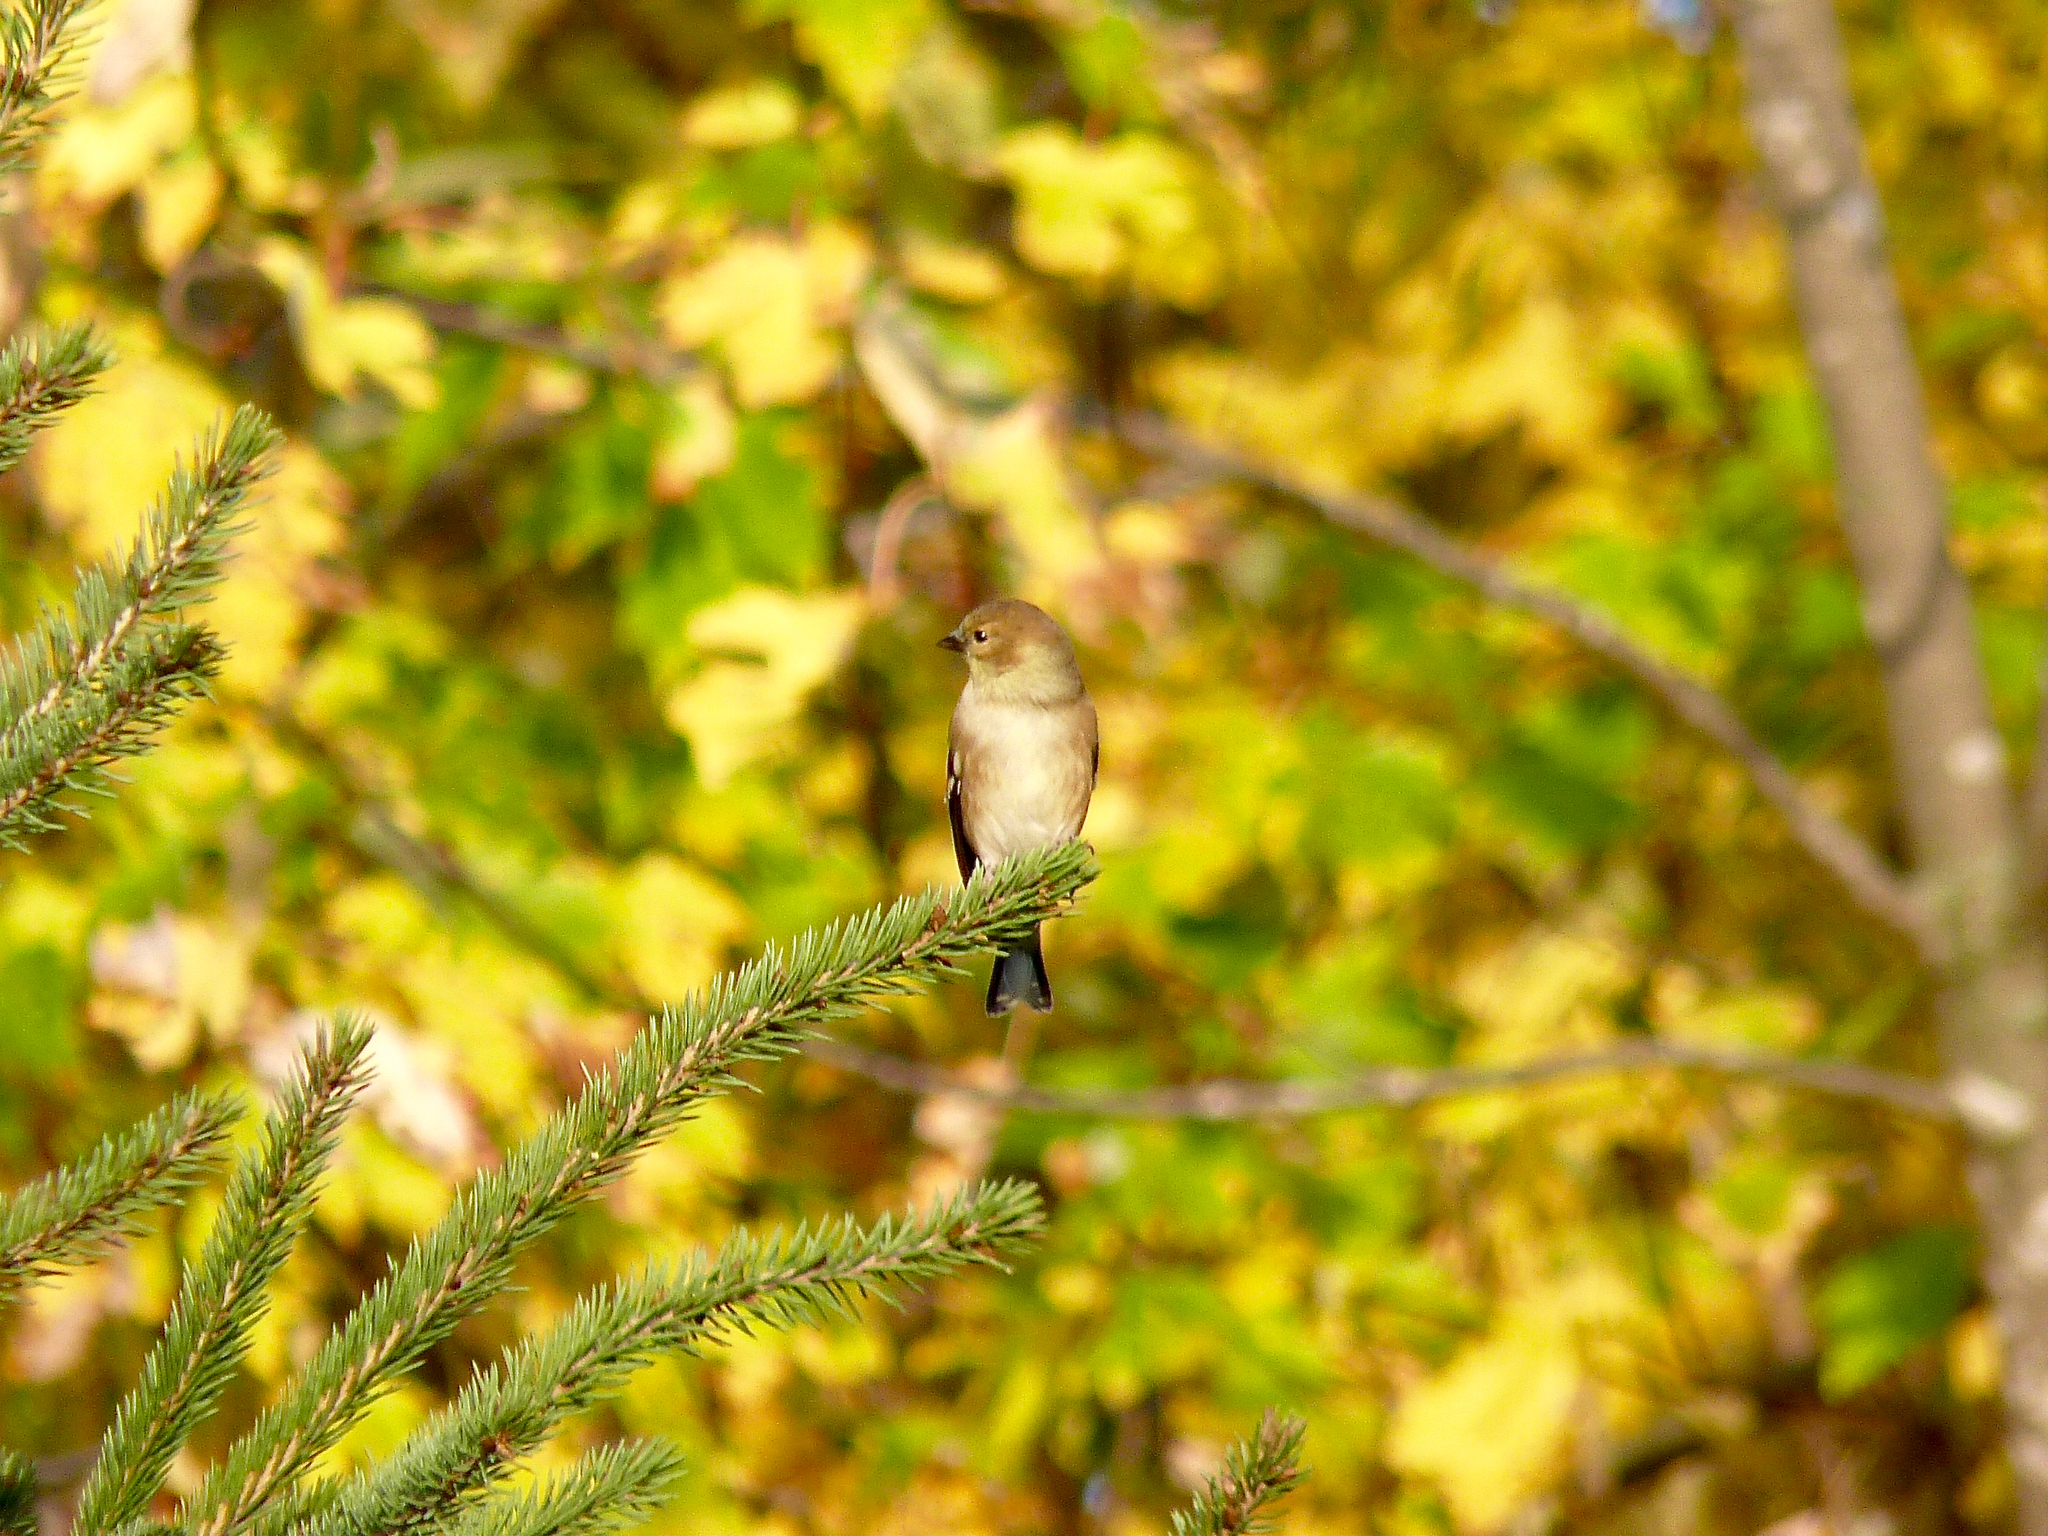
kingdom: Animalia
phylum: Chordata
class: Aves
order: Passeriformes
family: Fringillidae
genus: Spinus
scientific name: Spinus tristis
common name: American goldfinch
